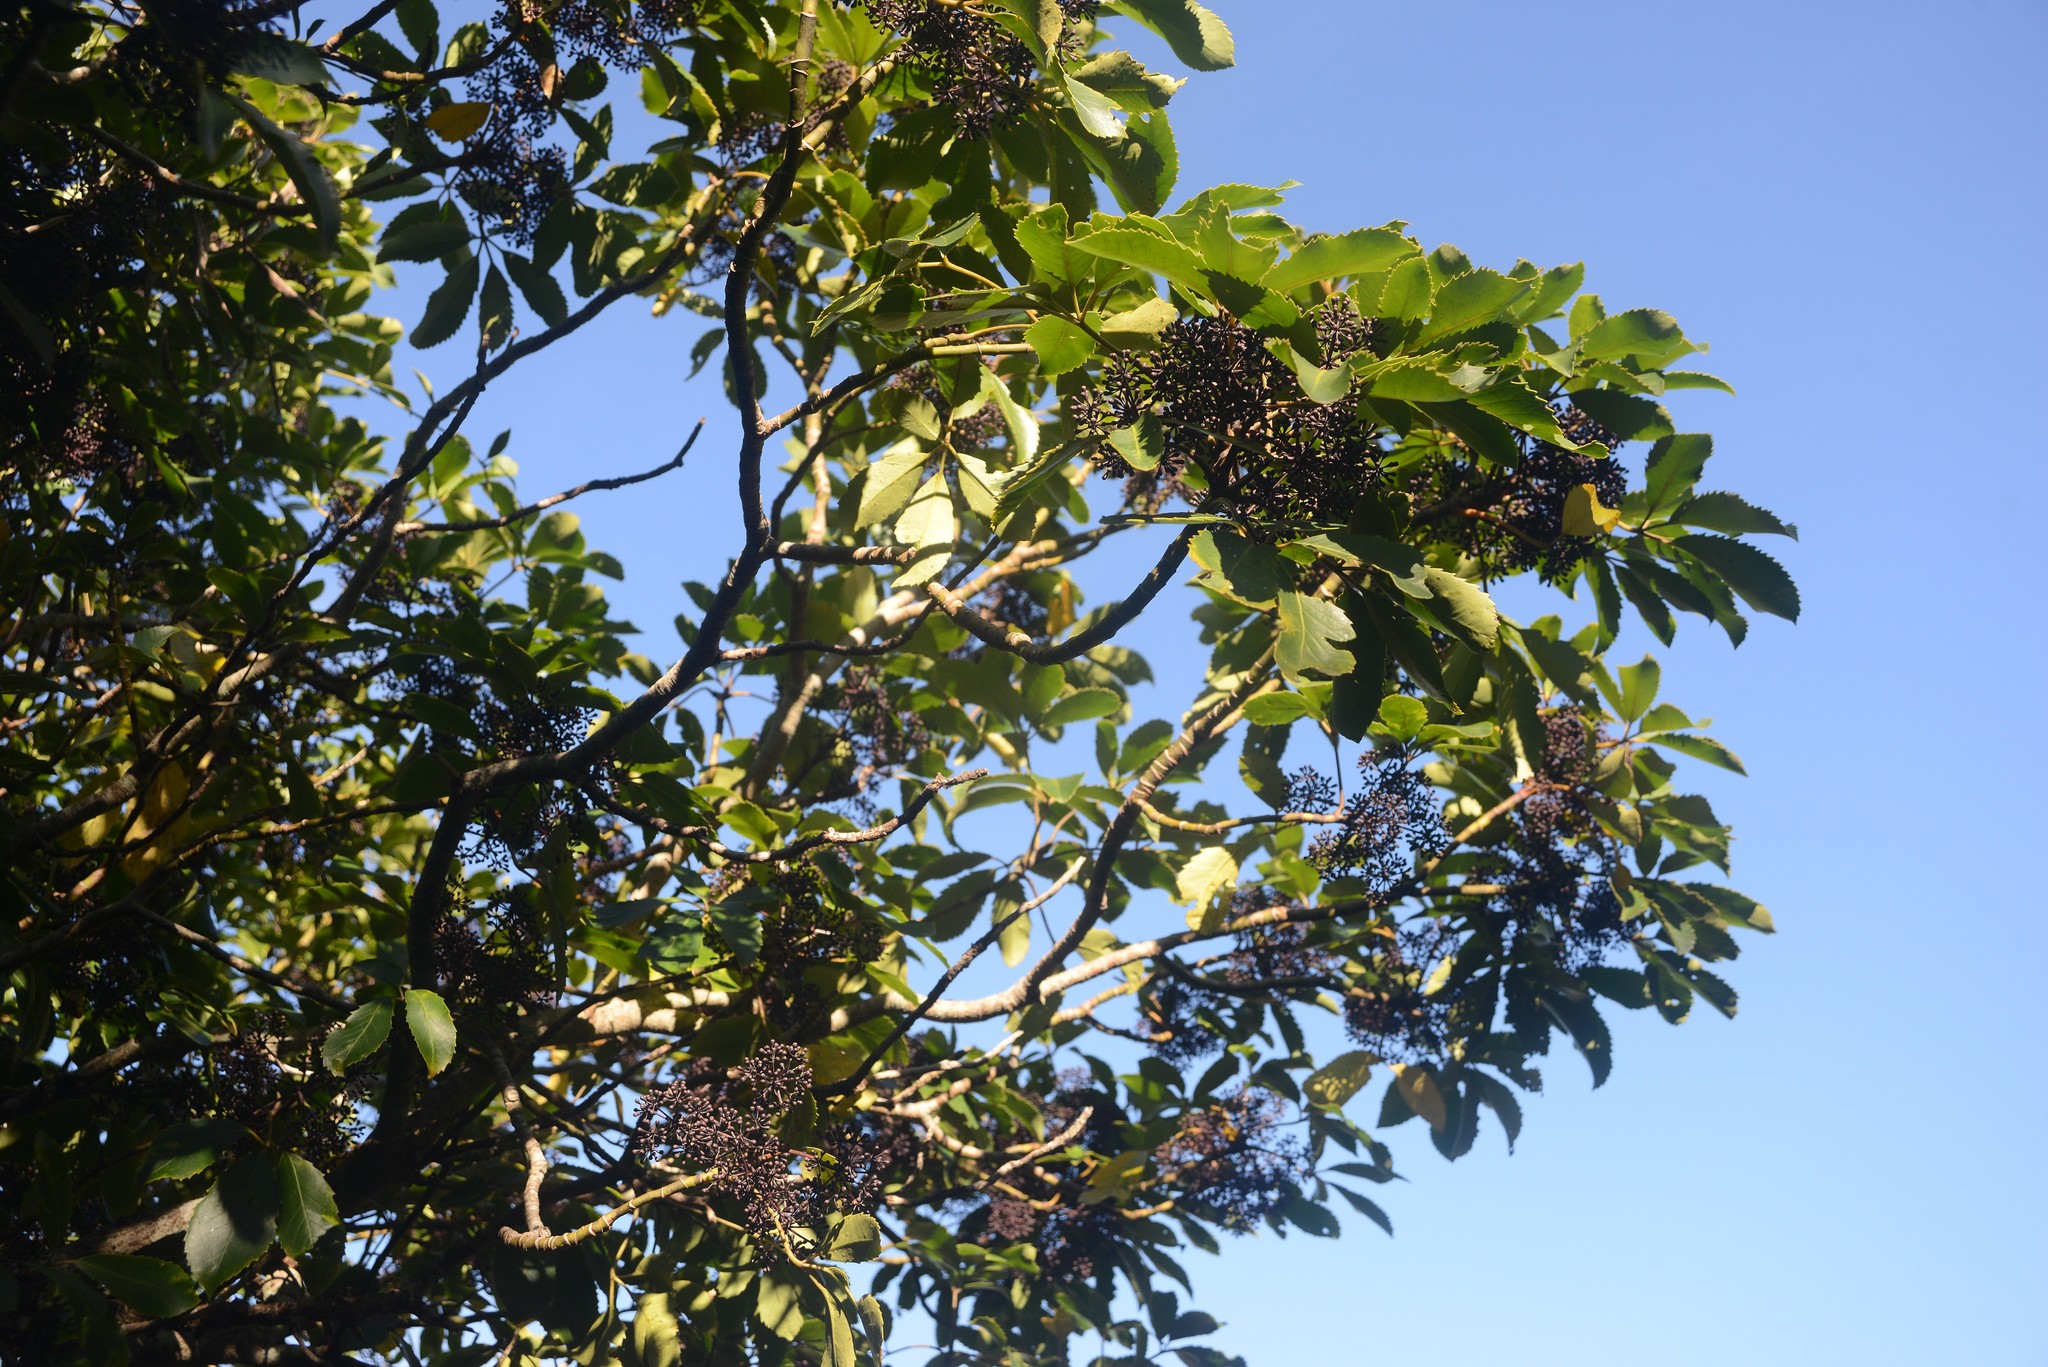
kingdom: Plantae
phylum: Tracheophyta
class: Magnoliopsida
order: Apiales
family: Araliaceae
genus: Neopanax
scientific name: Neopanax arboreus
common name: Five-fingers
